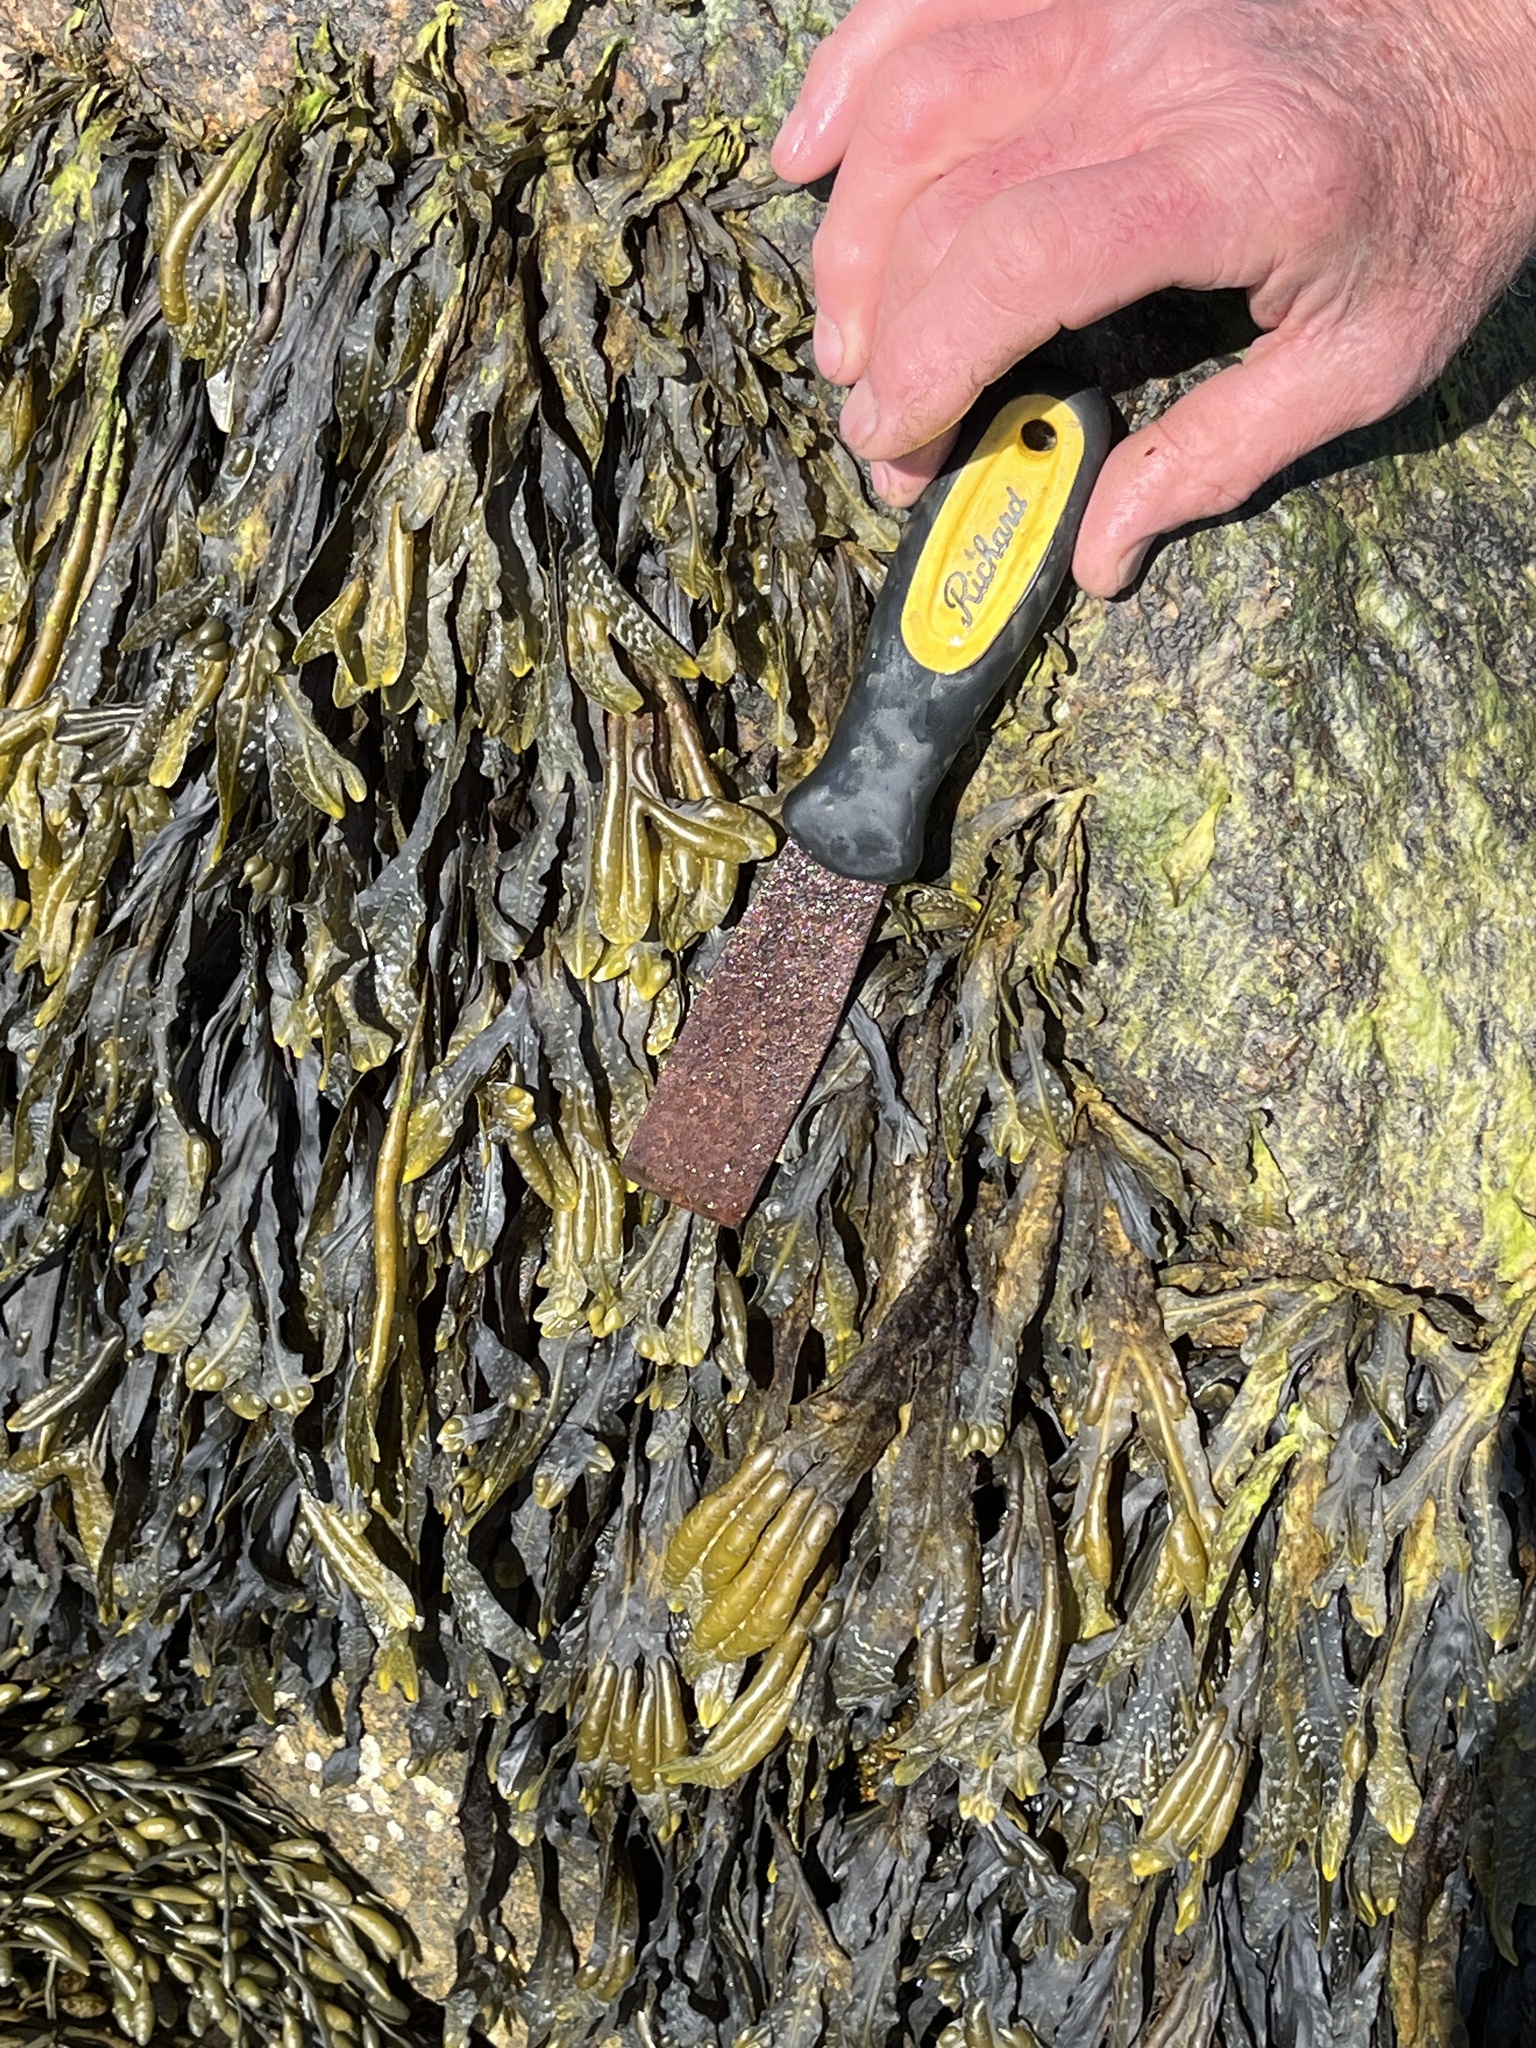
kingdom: Chromista
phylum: Ochrophyta
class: Phaeophyceae
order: Fucales
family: Fucaceae
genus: Fucus
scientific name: Fucus vesiculosus
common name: Bladder wrack
